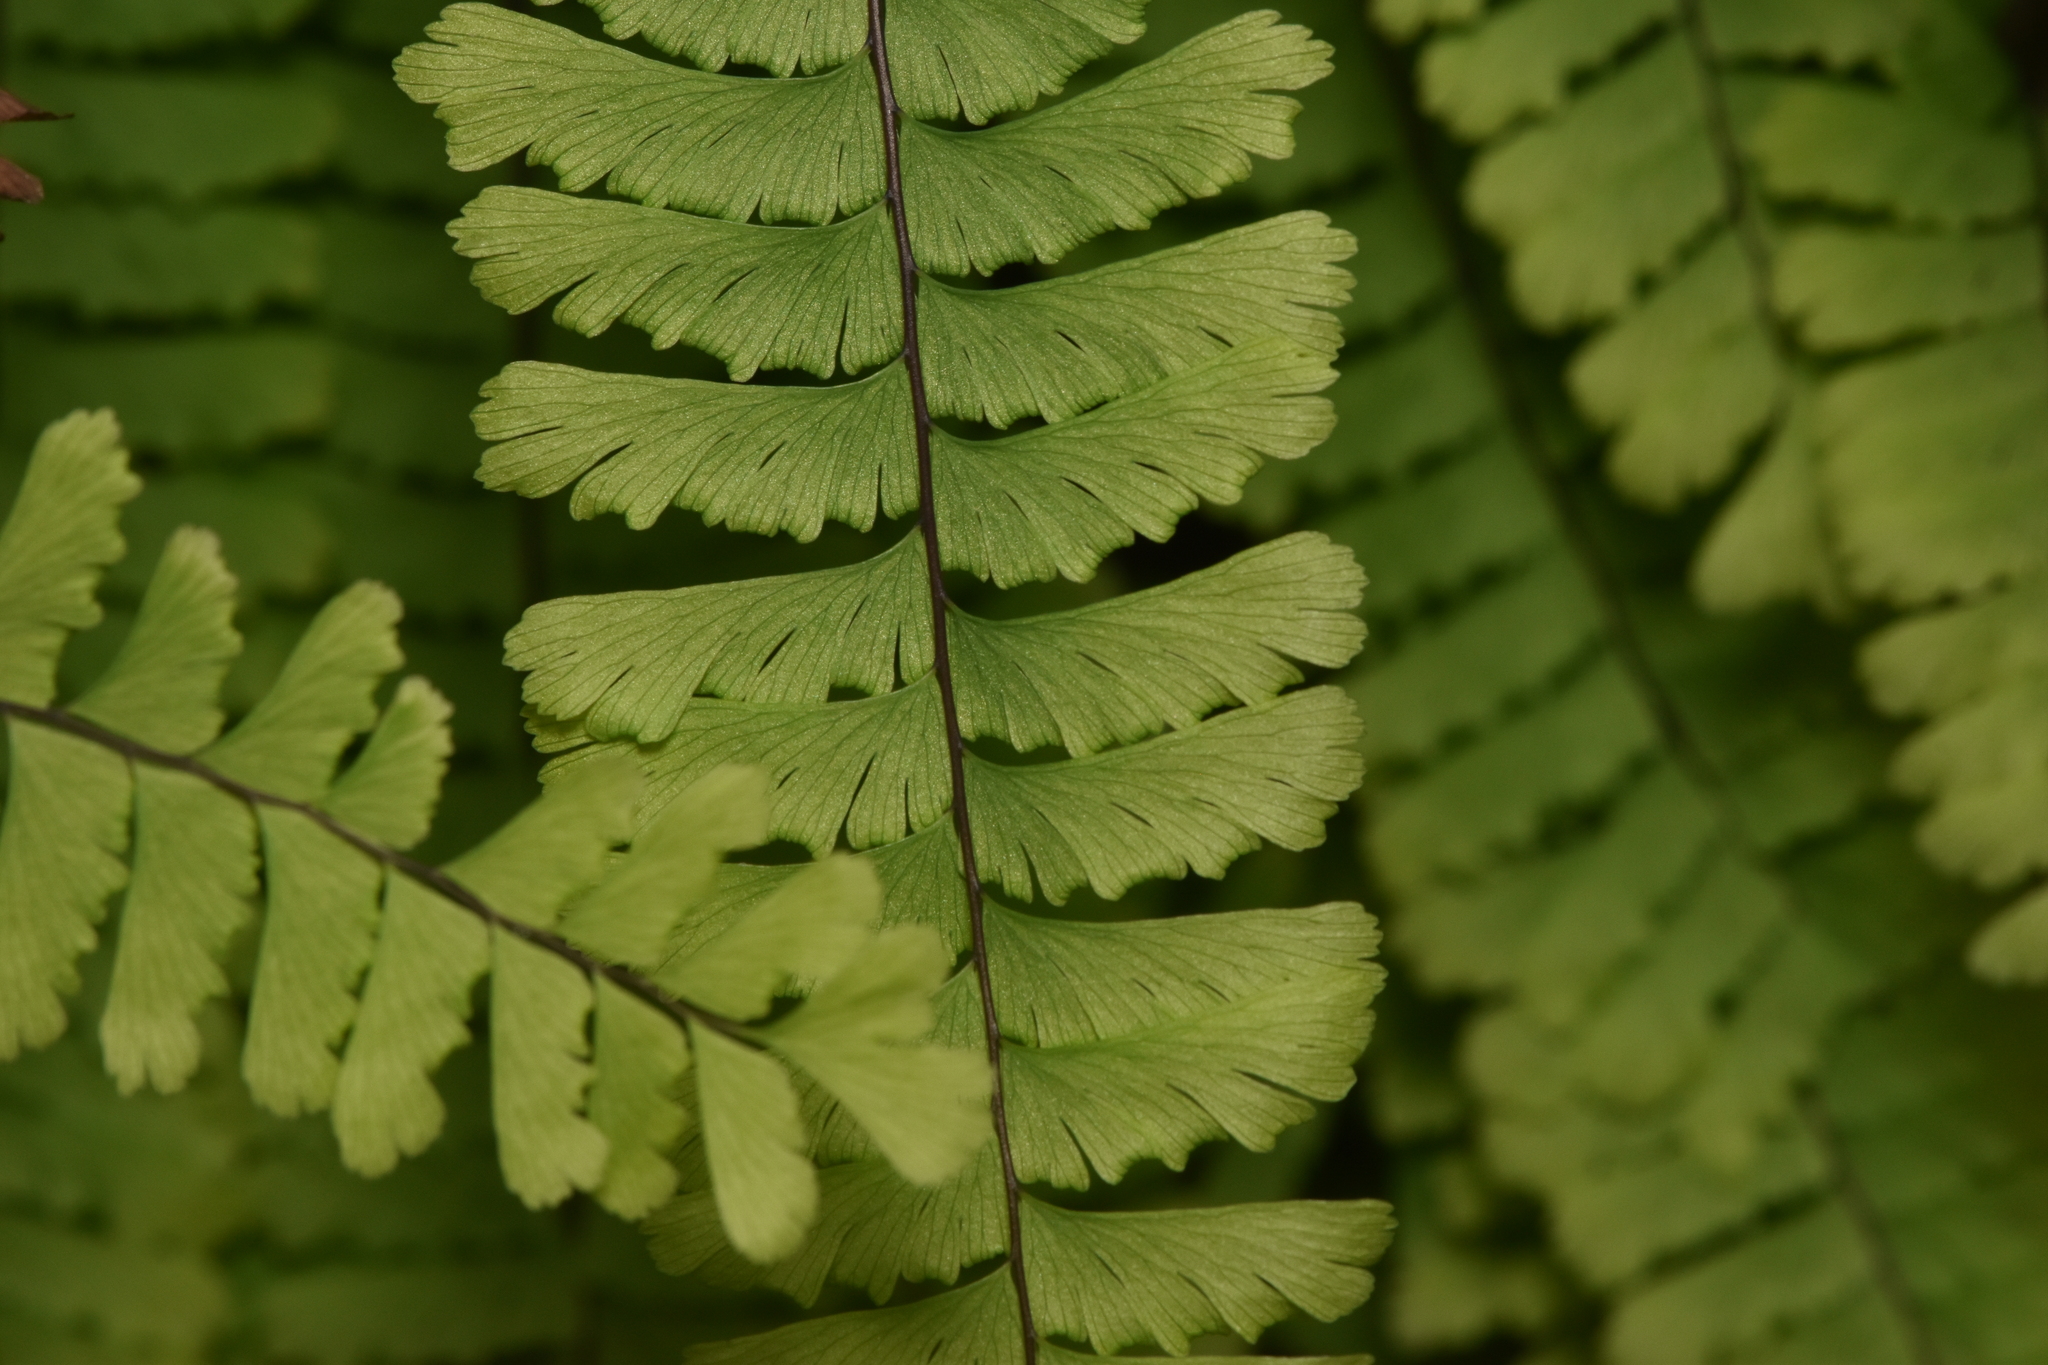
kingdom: Plantae
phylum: Tracheophyta
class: Polypodiopsida
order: Polypodiales
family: Pteridaceae
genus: Adiantum
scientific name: Adiantum aleuticum
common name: Aleutian maidenhair fern
